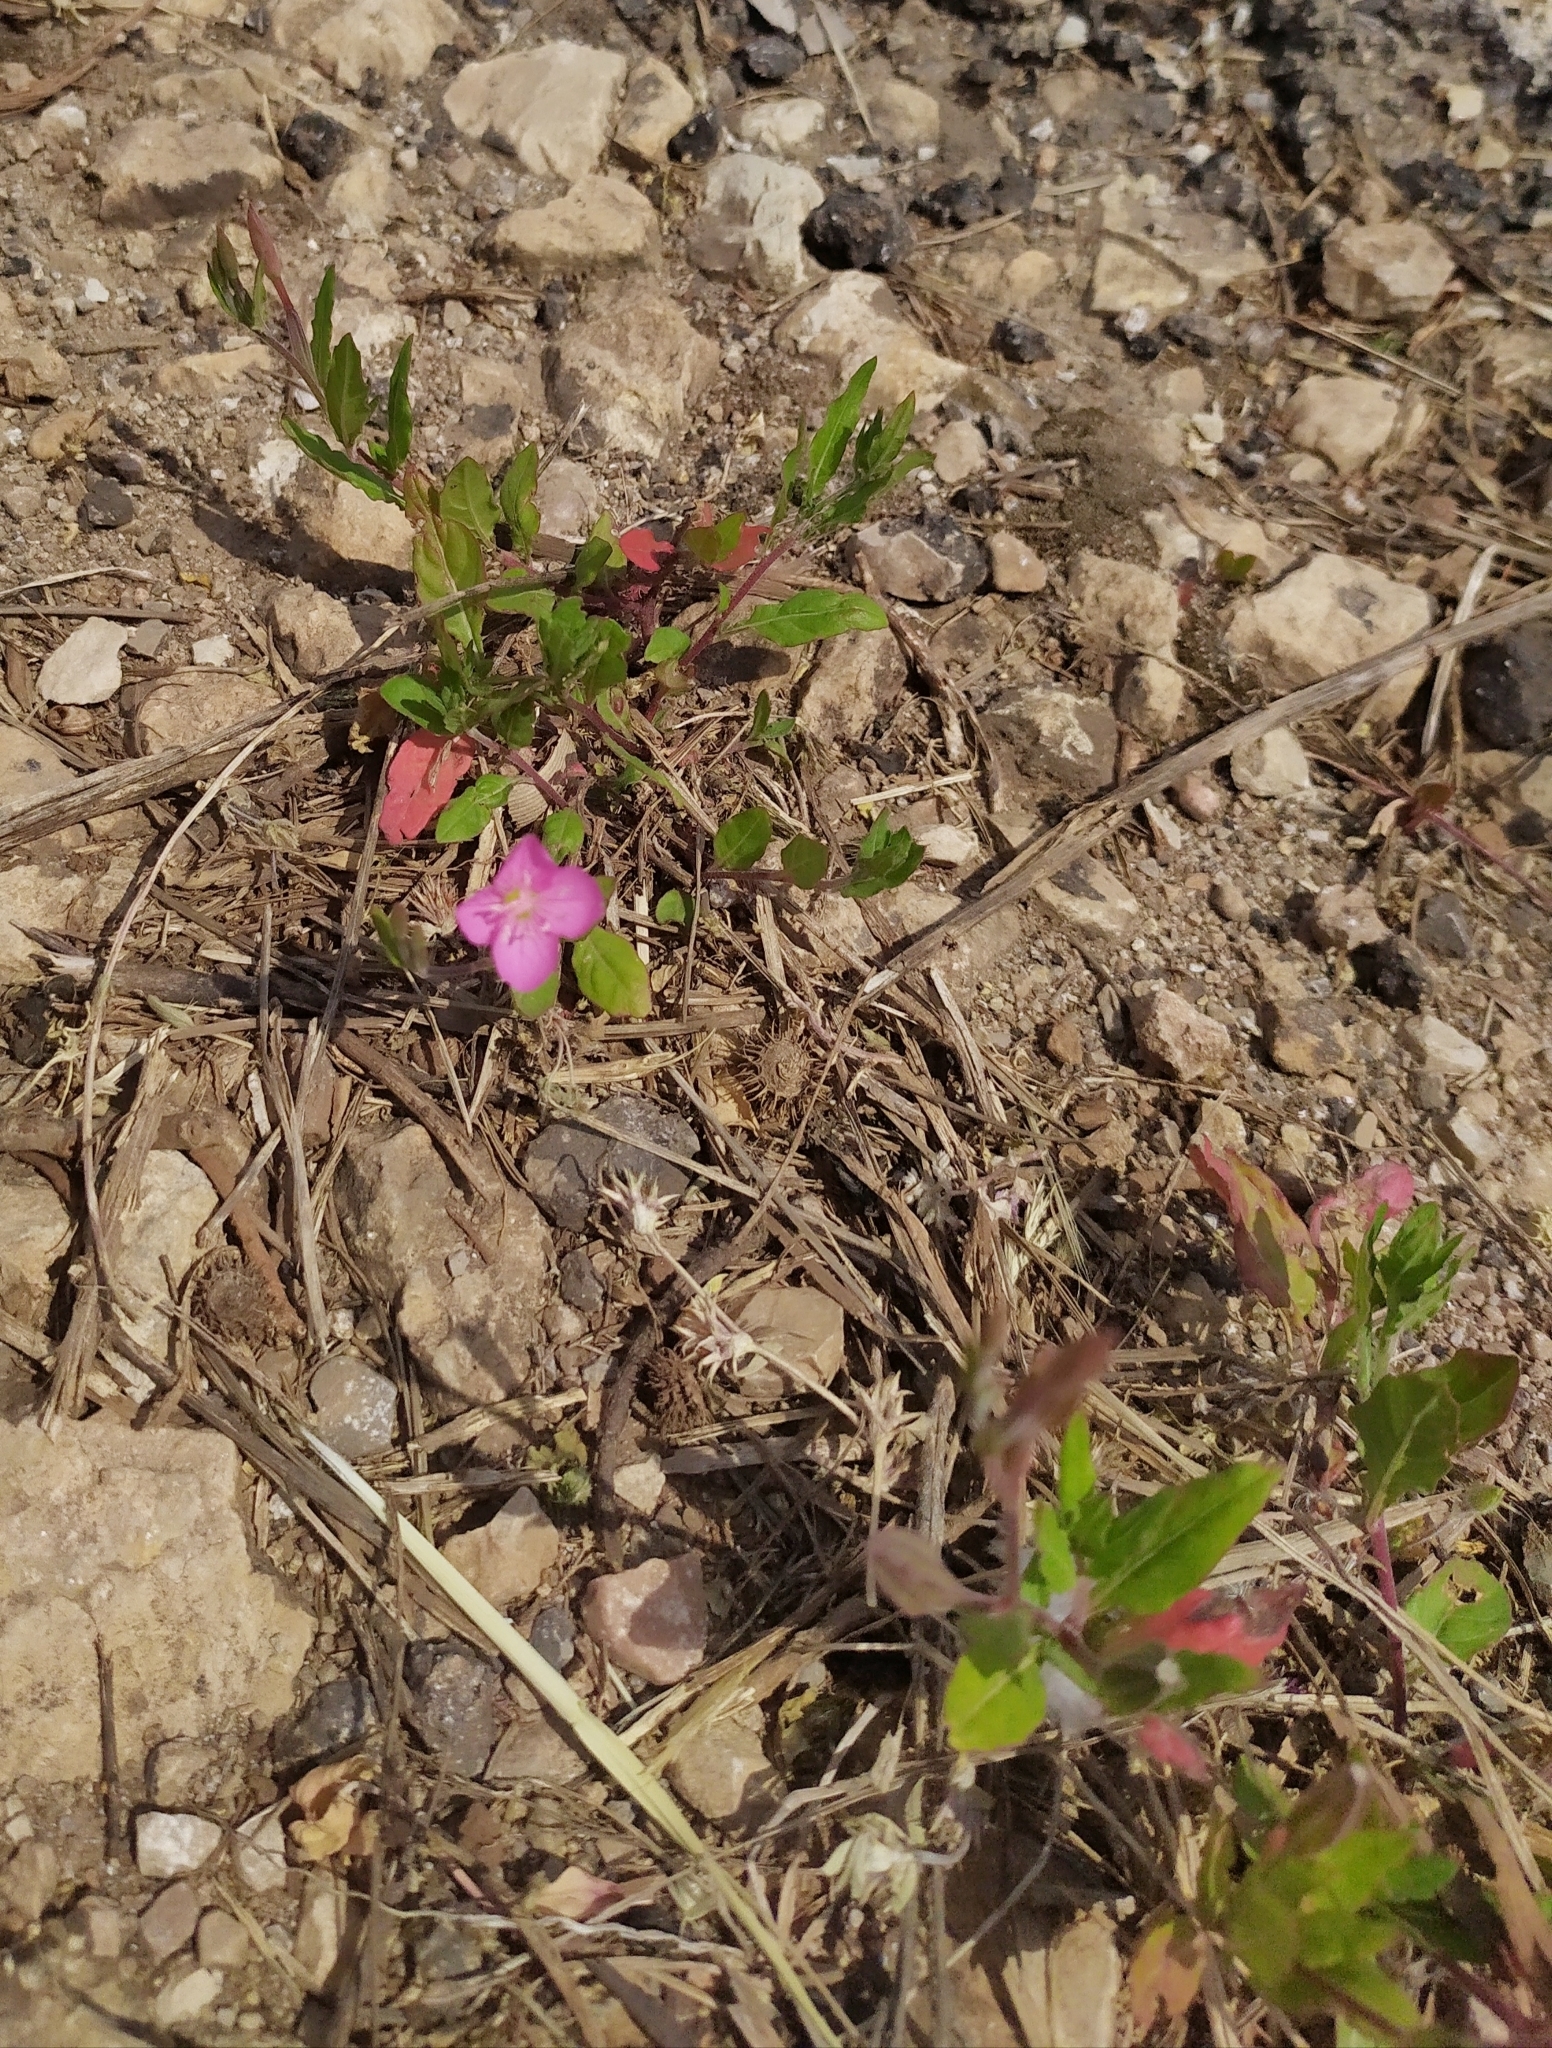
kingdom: Plantae
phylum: Tracheophyta
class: Magnoliopsida
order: Myrtales
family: Onagraceae
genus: Oenothera
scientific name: Oenothera rosea
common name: Rosy evening-primrose
